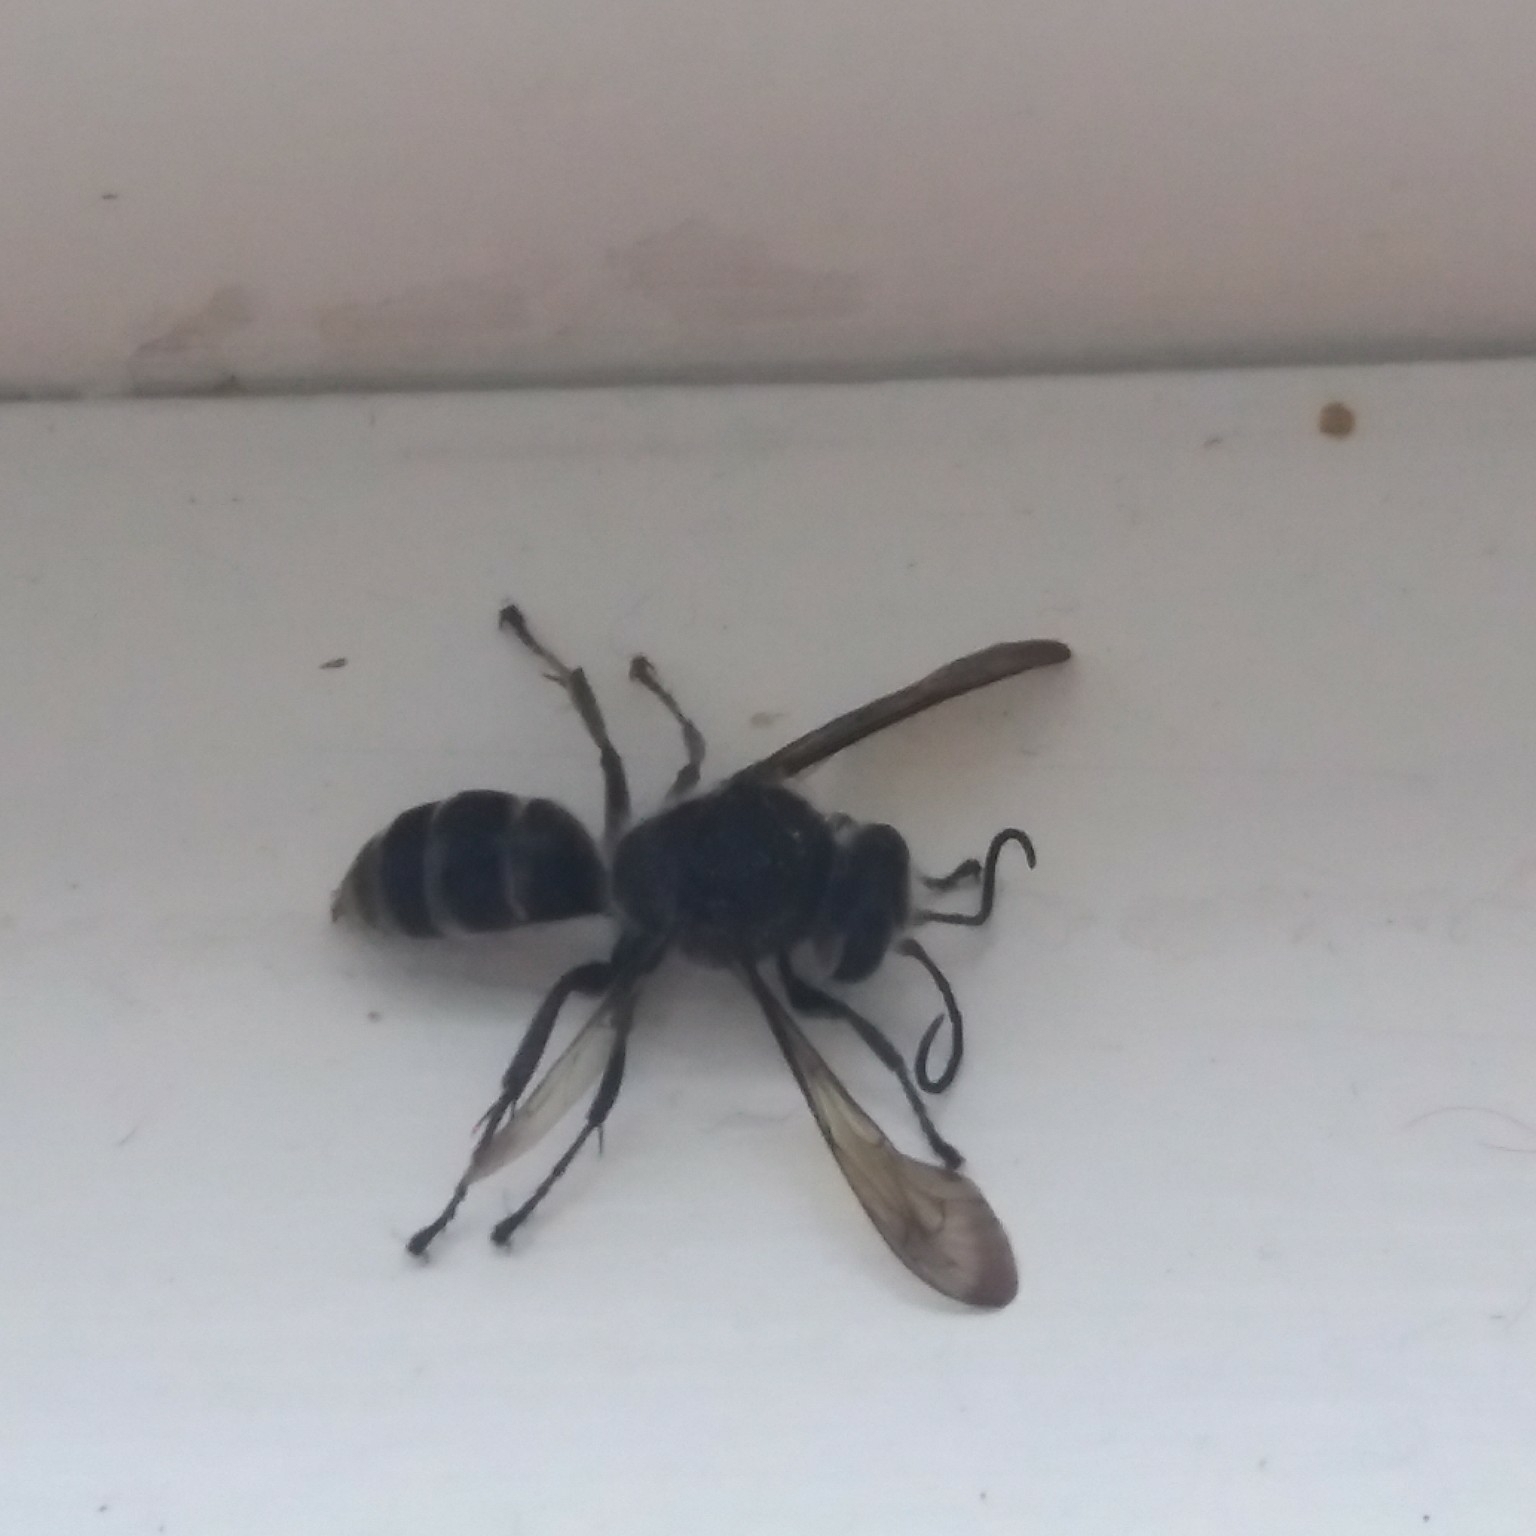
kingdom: Animalia
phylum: Arthropoda
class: Insecta
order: Hymenoptera
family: Crabronidae
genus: Pison
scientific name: Pison spinolae
